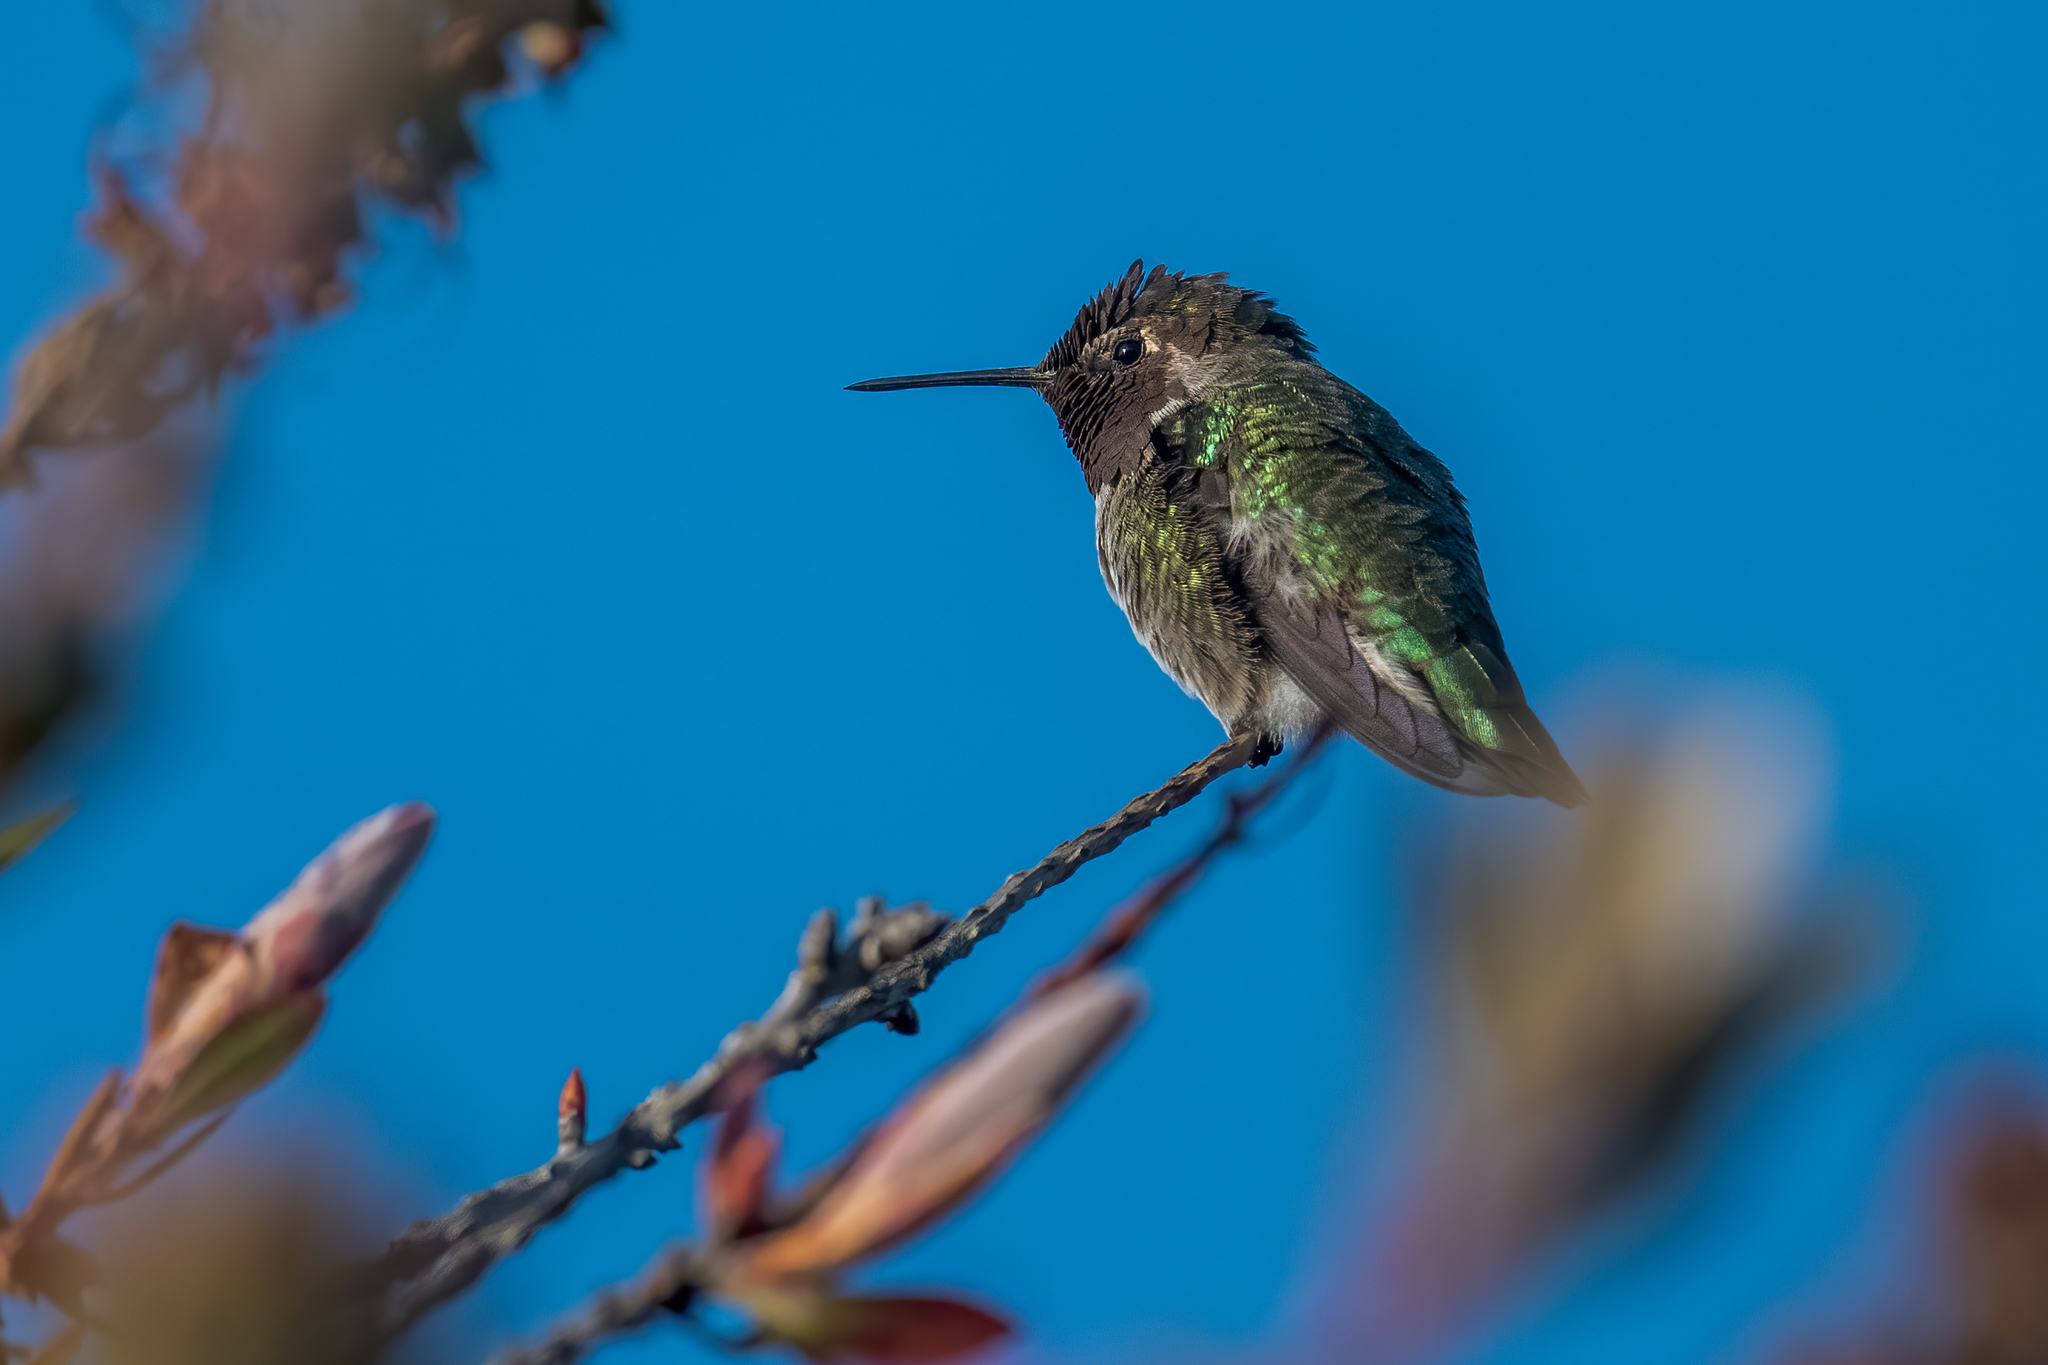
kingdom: Animalia
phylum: Chordata
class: Aves
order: Apodiformes
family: Trochilidae
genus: Calypte
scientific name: Calypte anna
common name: Anna's hummingbird
